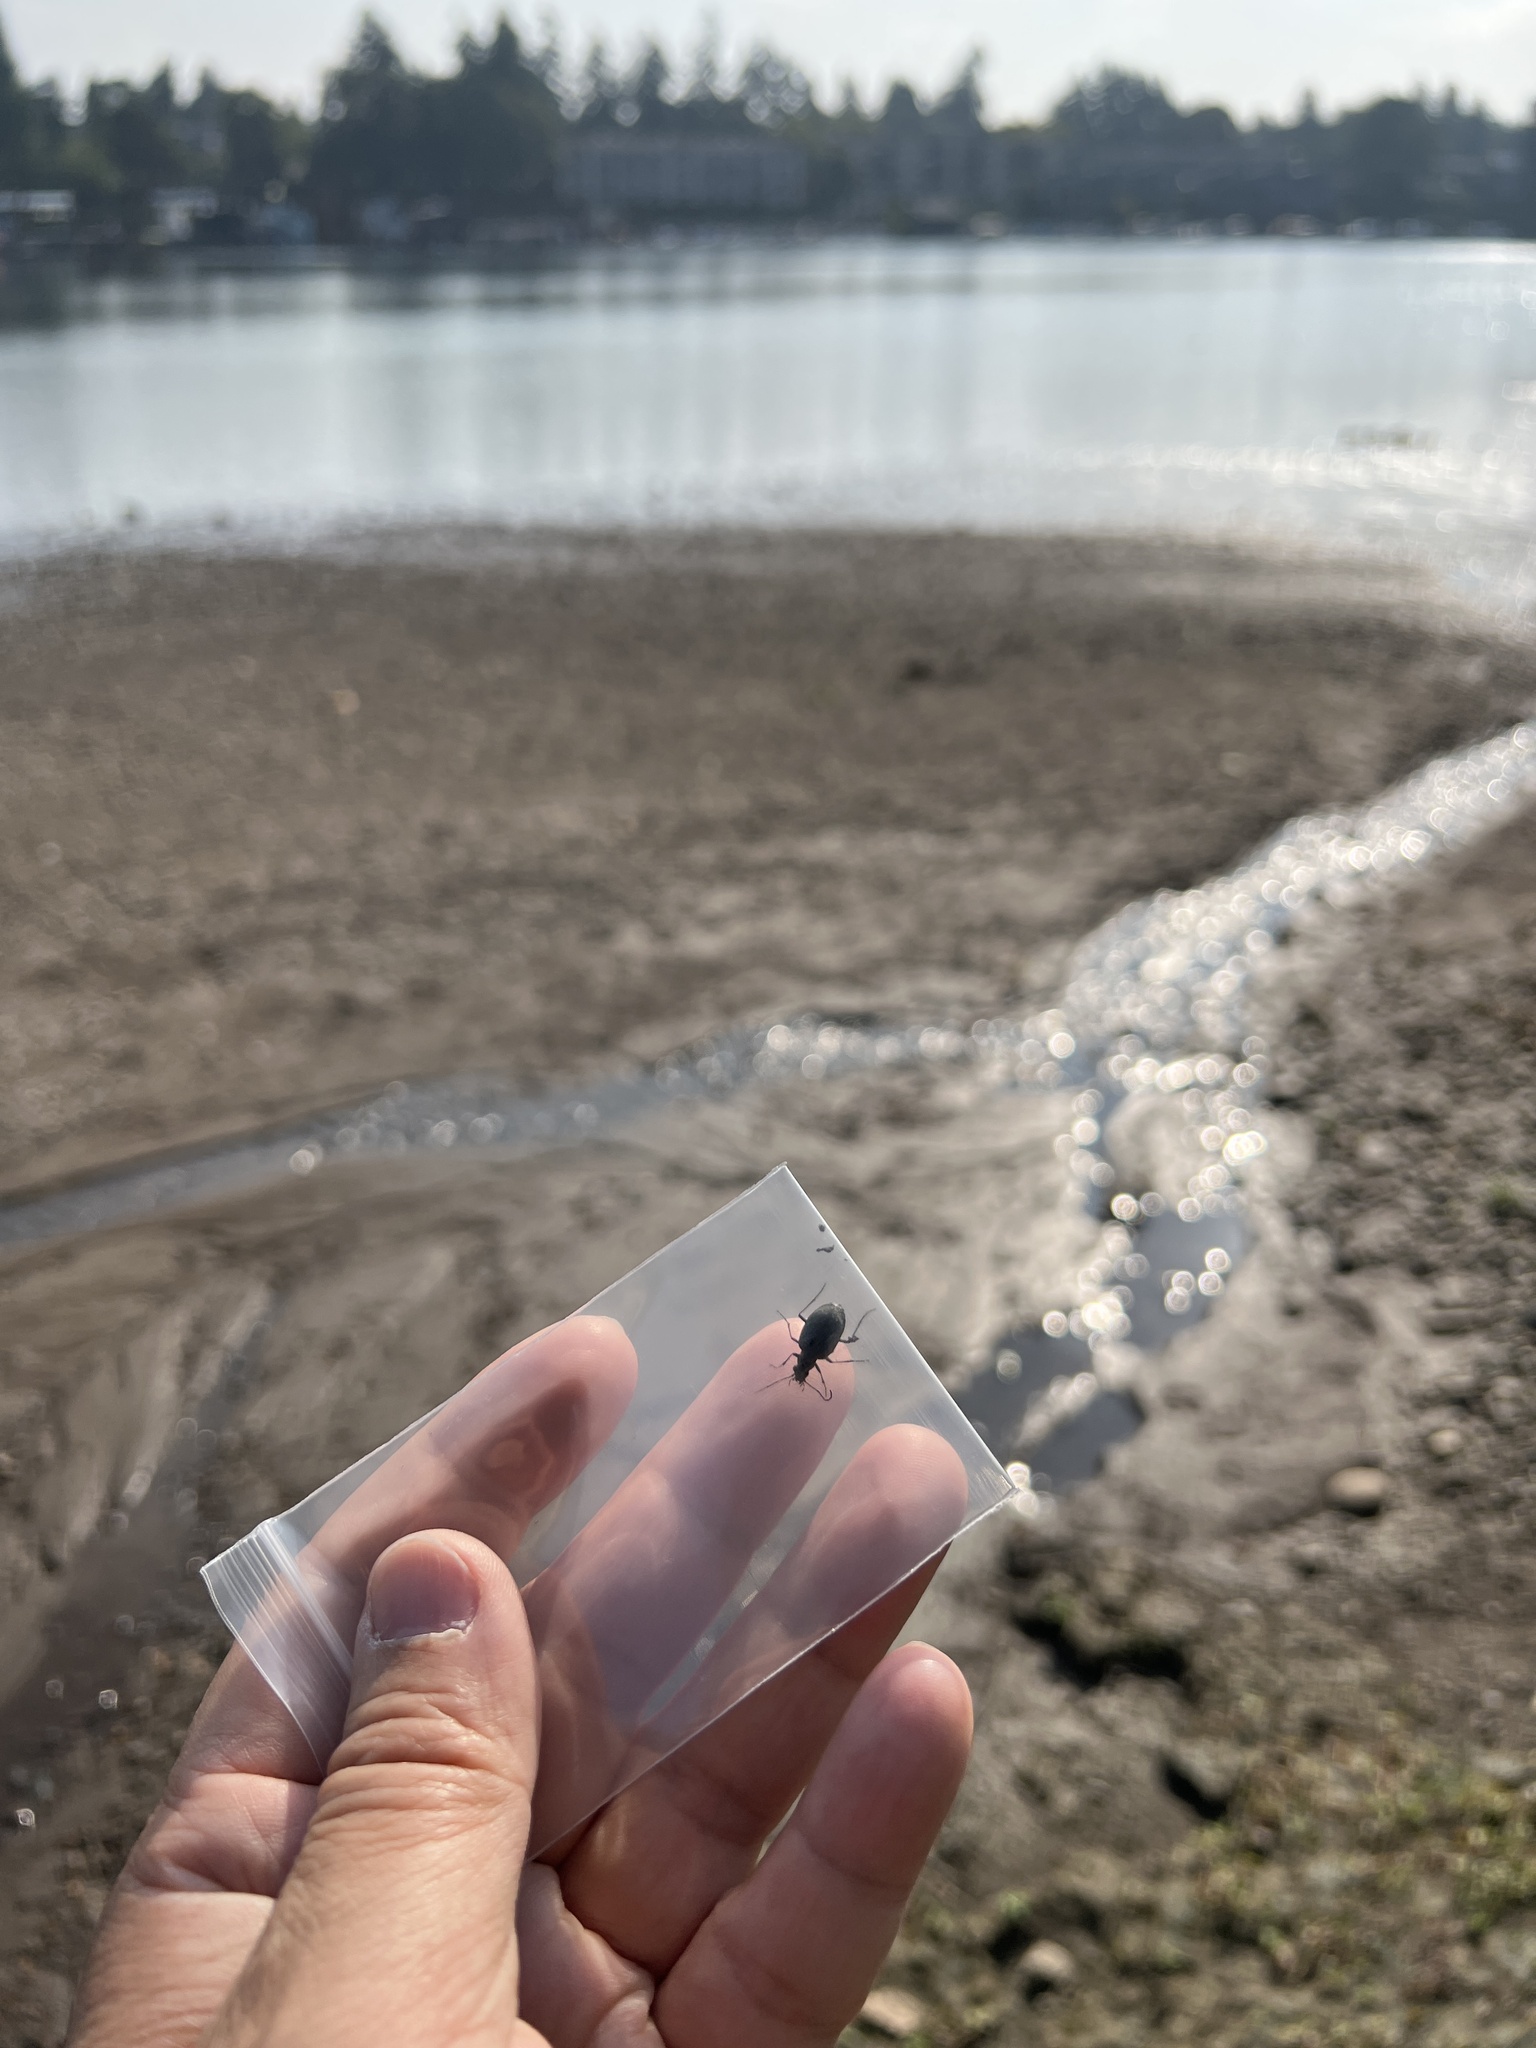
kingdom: Animalia
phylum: Arthropoda
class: Insecta
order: Coleoptera
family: Carabidae
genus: Opisthius
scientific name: Opisthius richardsoni
